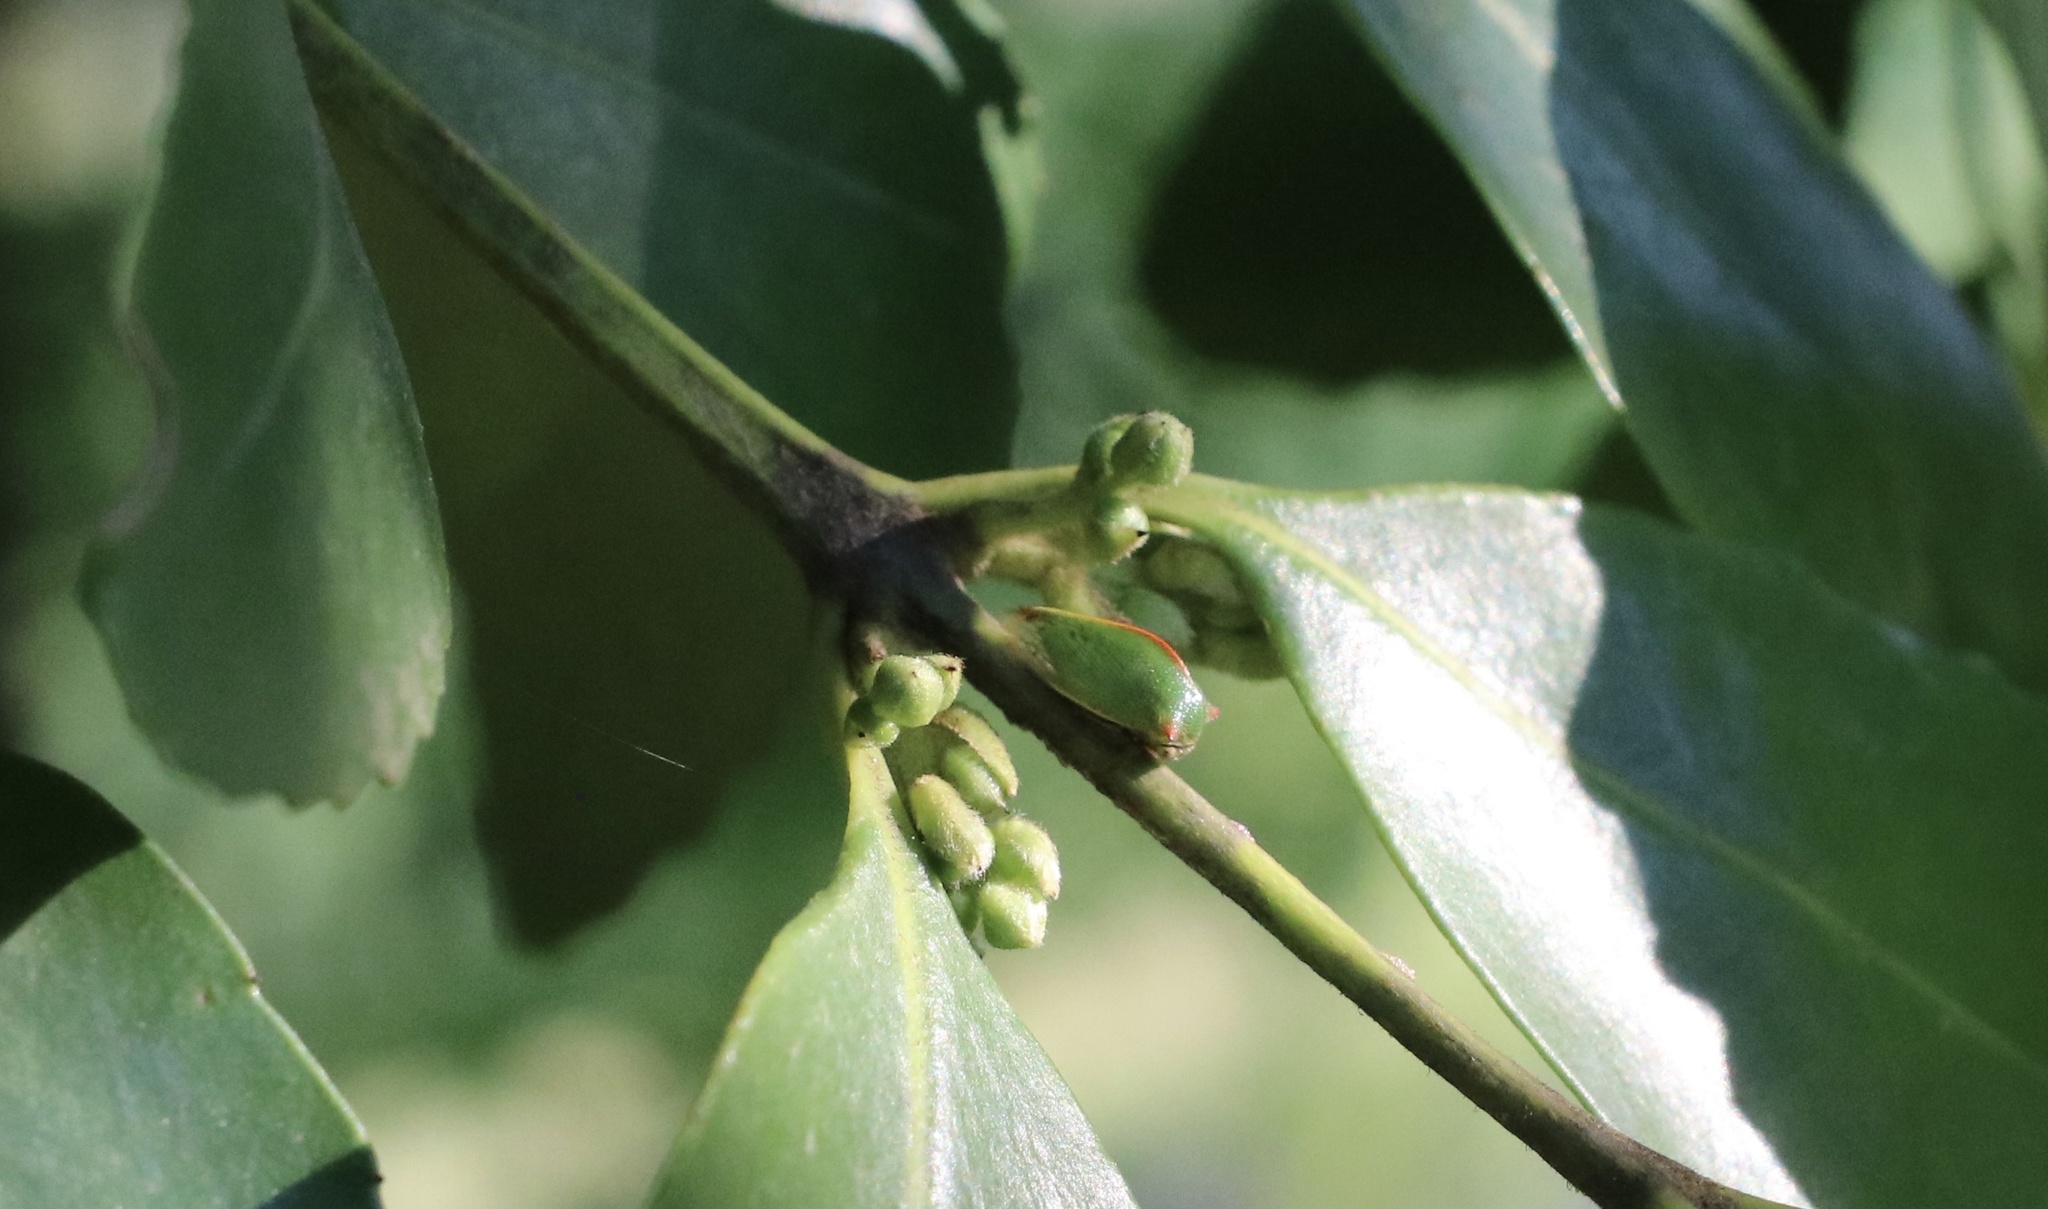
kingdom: Animalia
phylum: Arthropoda
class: Insecta
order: Hemiptera
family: Membracidae
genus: Alchisme
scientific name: Alchisme rubrocostata
